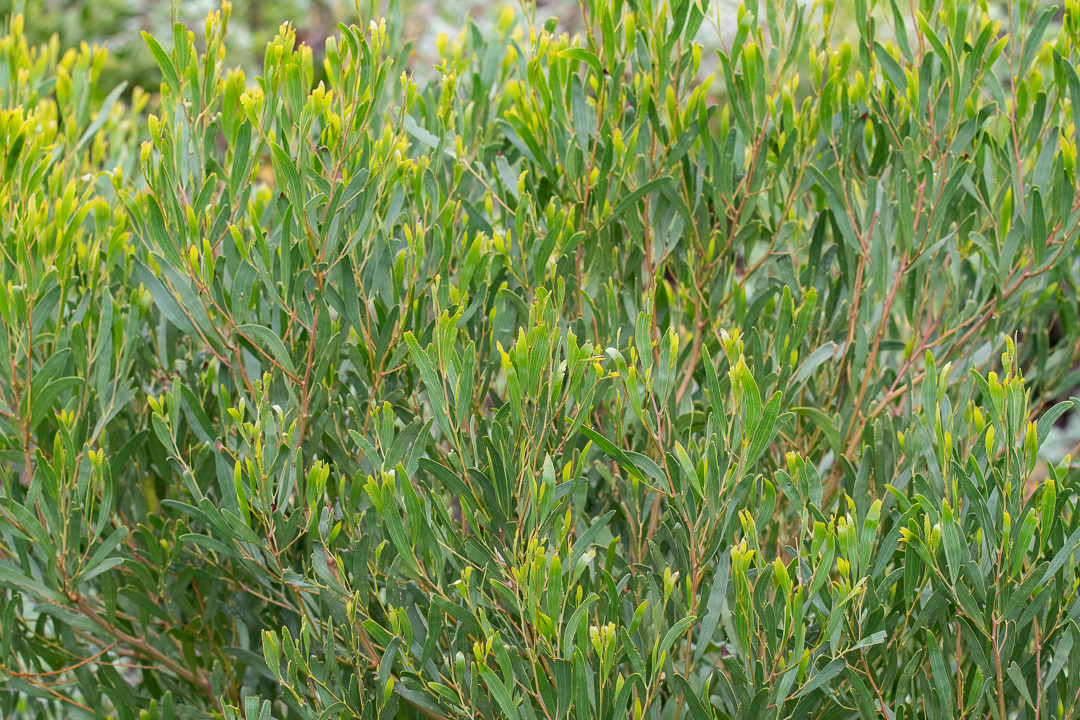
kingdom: Plantae
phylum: Tracheophyta
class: Magnoliopsida
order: Fabales
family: Fabaceae
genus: Acacia
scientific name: Acacia cyclops
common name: Coastal wattle
